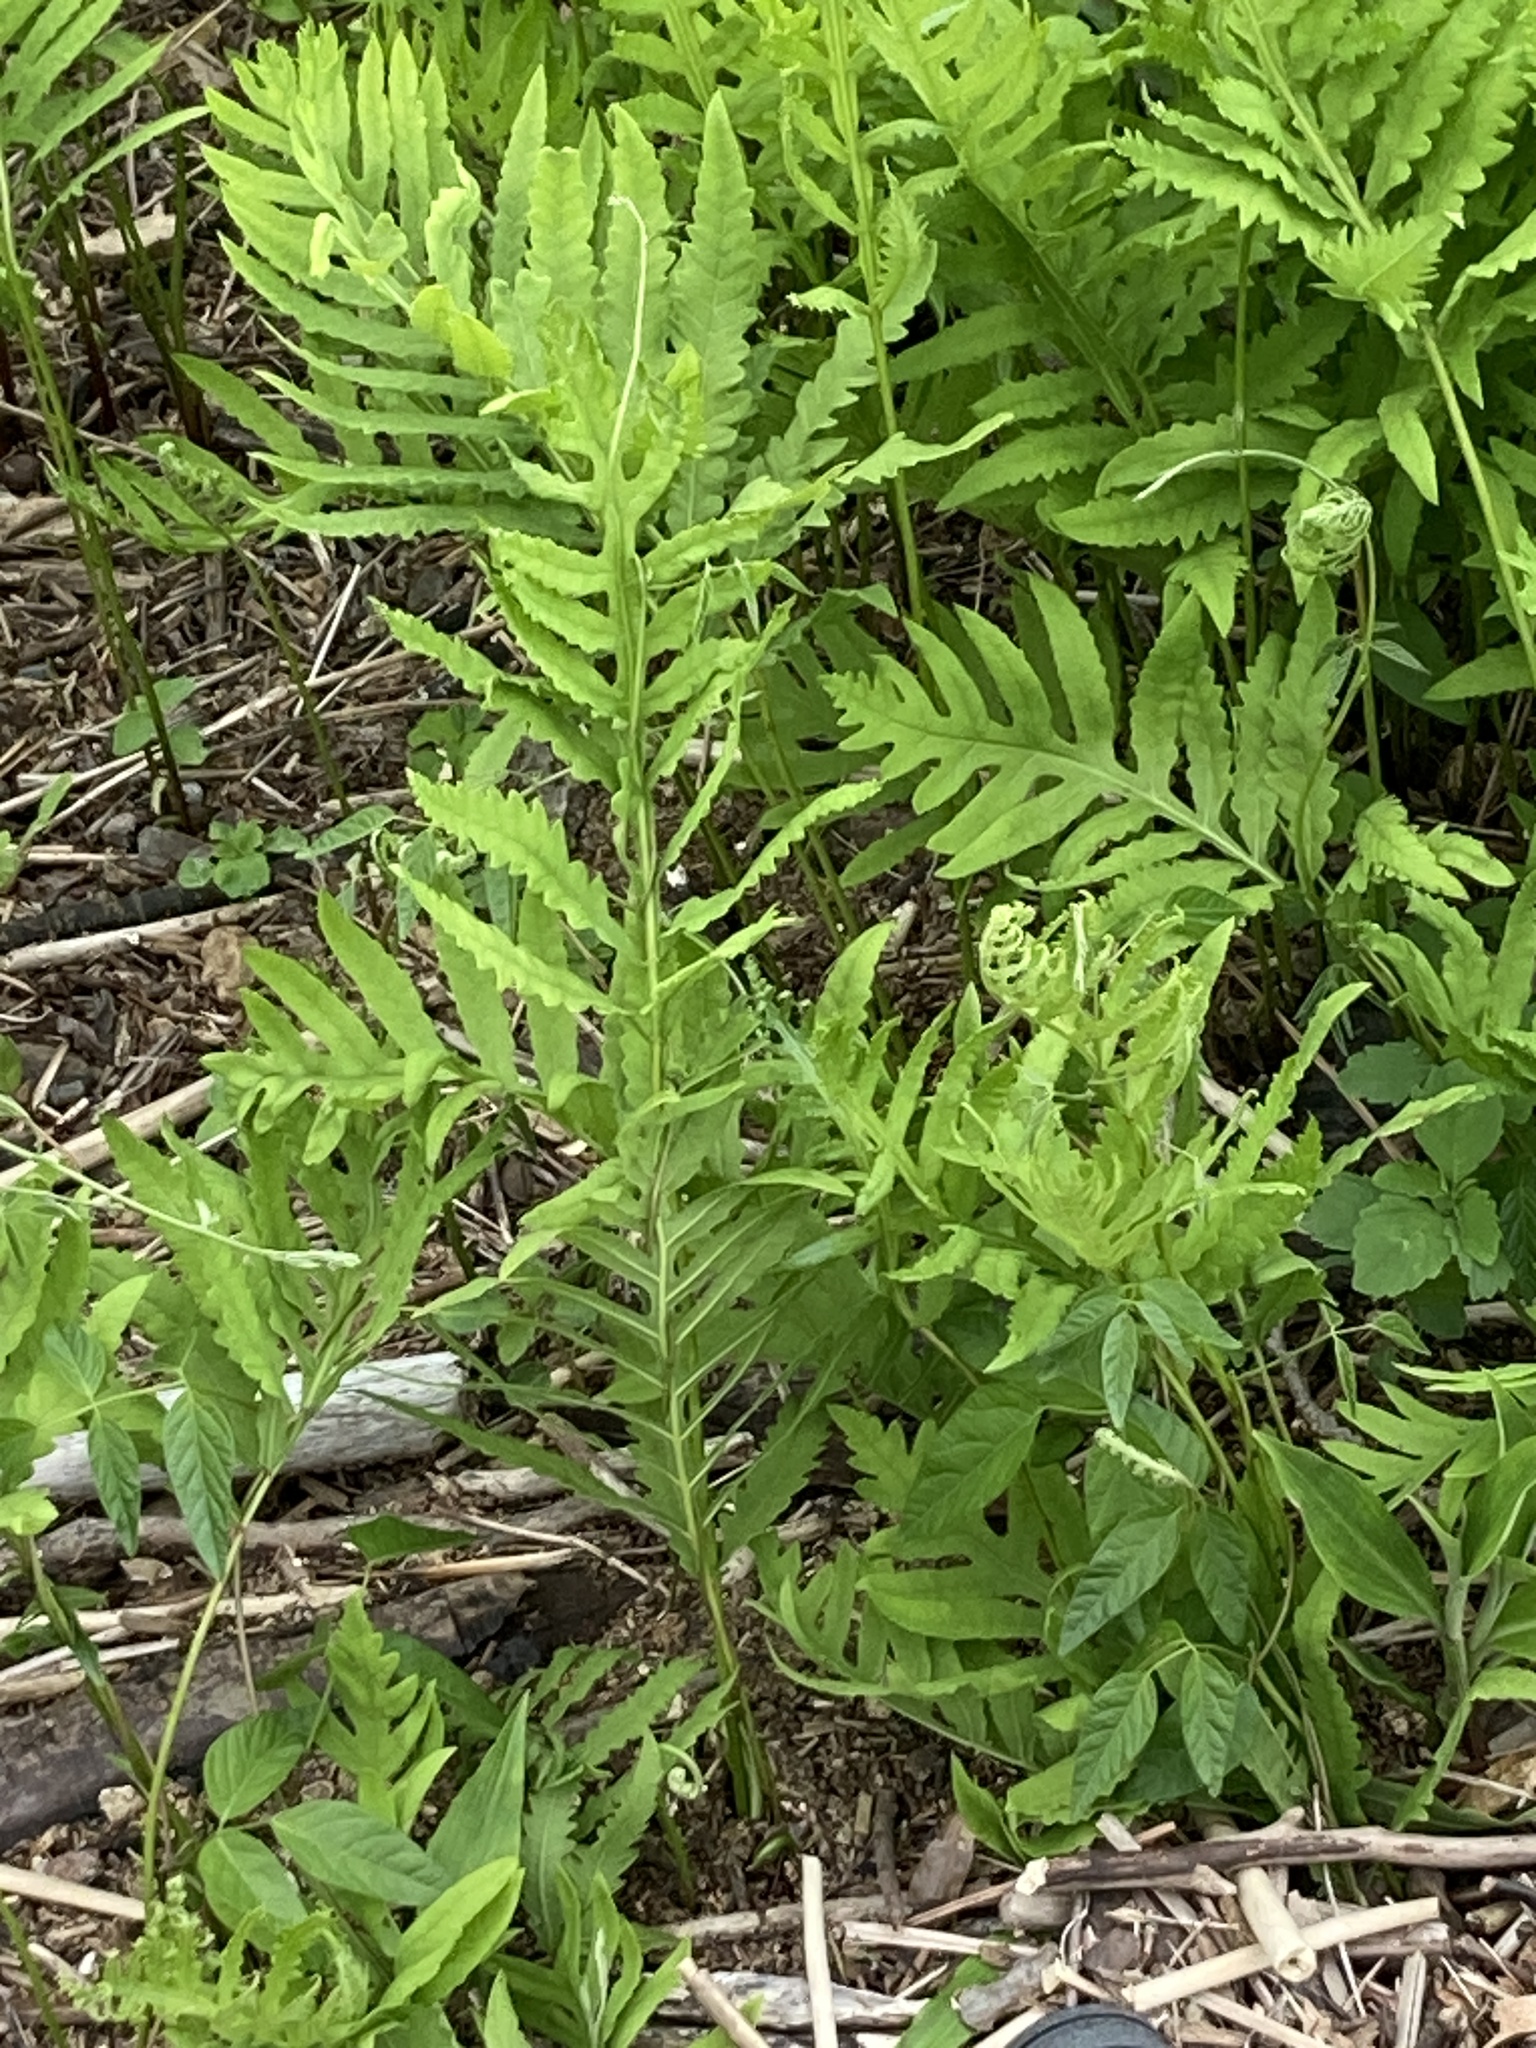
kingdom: Plantae
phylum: Tracheophyta
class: Polypodiopsida
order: Polypodiales
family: Onocleaceae
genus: Onoclea
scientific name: Onoclea sensibilis
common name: Sensitive fern
